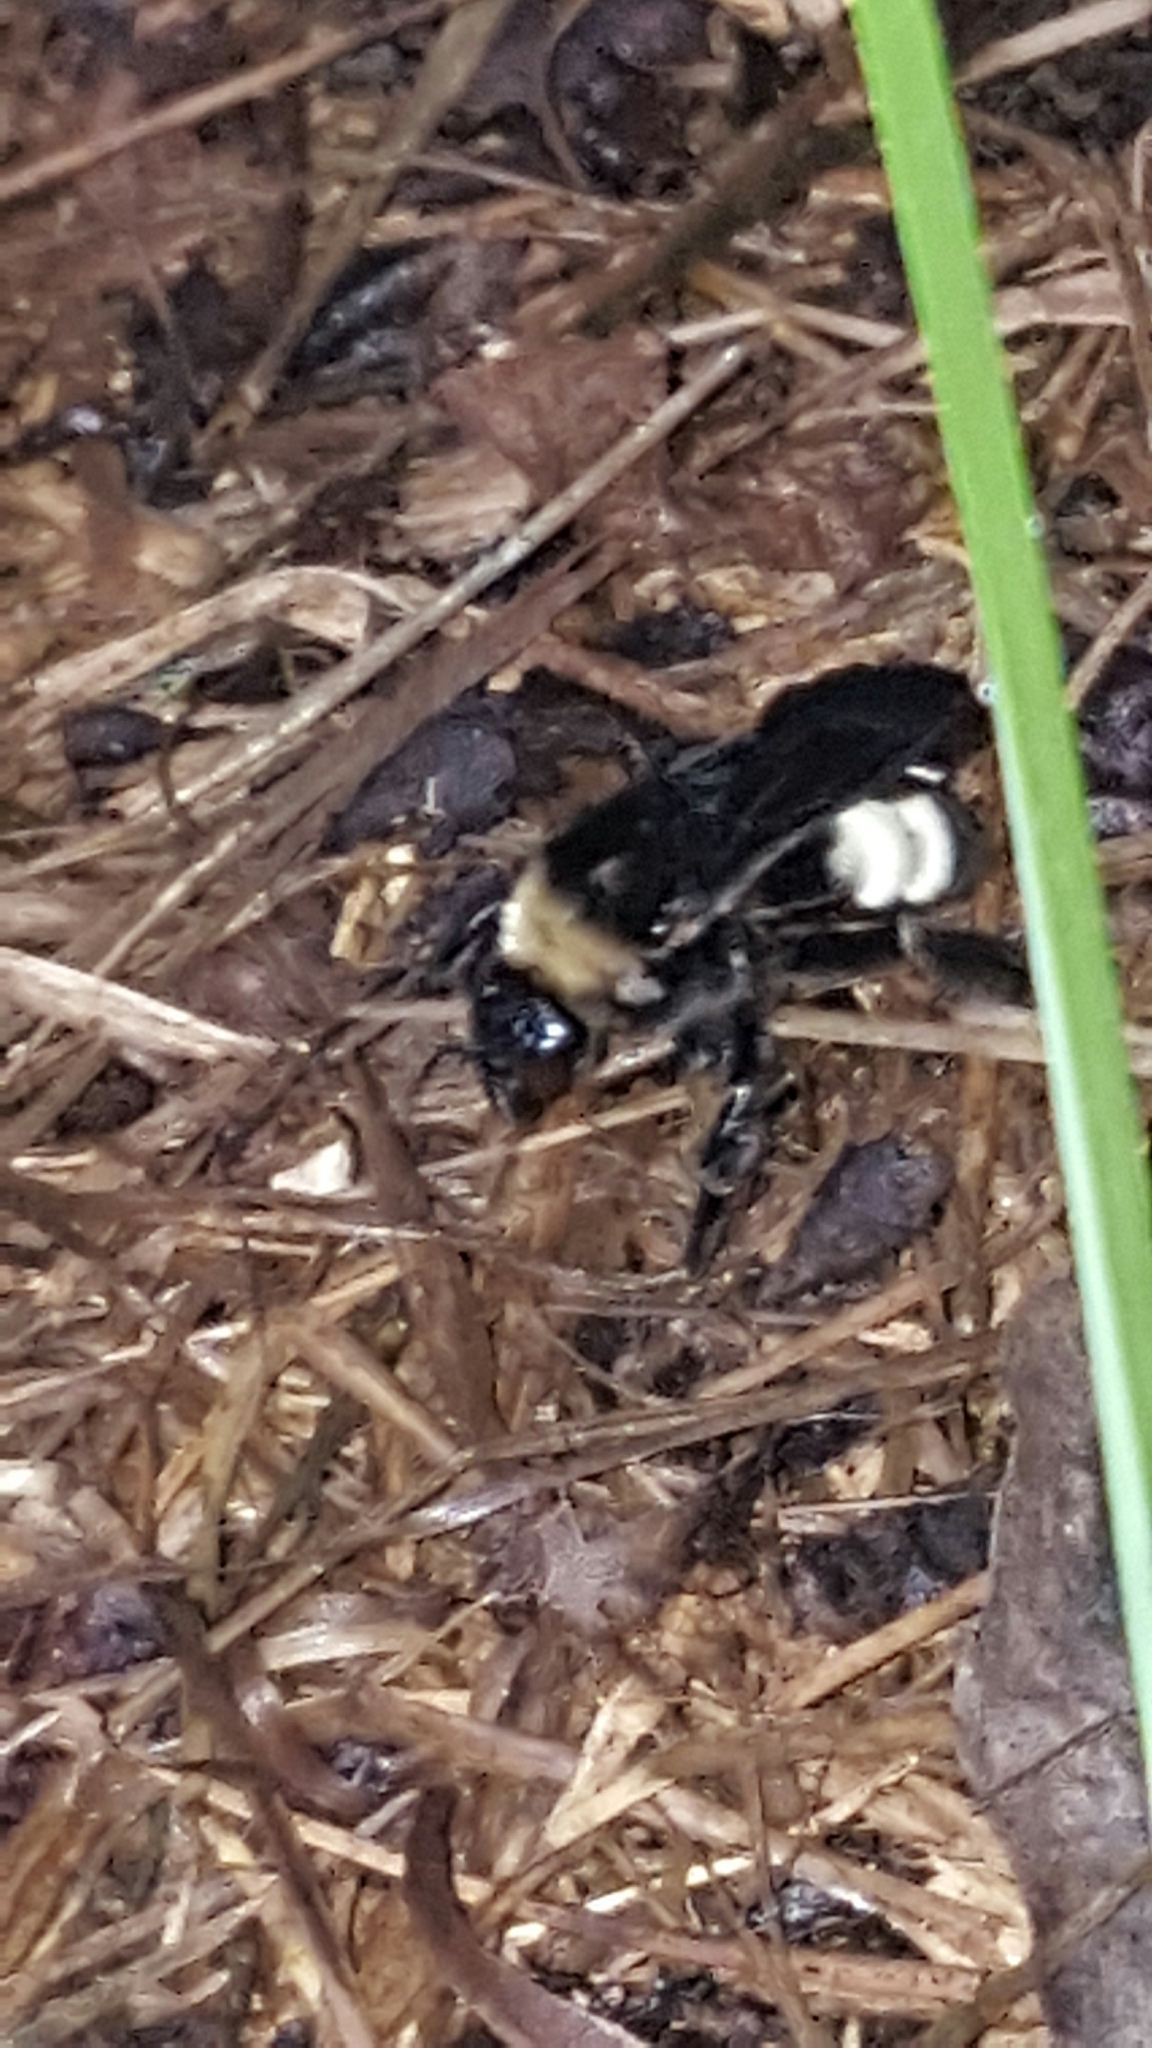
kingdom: Animalia
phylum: Arthropoda
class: Insecta
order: Hymenoptera
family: Apidae
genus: Bombus
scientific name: Bombus pensylvanicus
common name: Bumble bee
